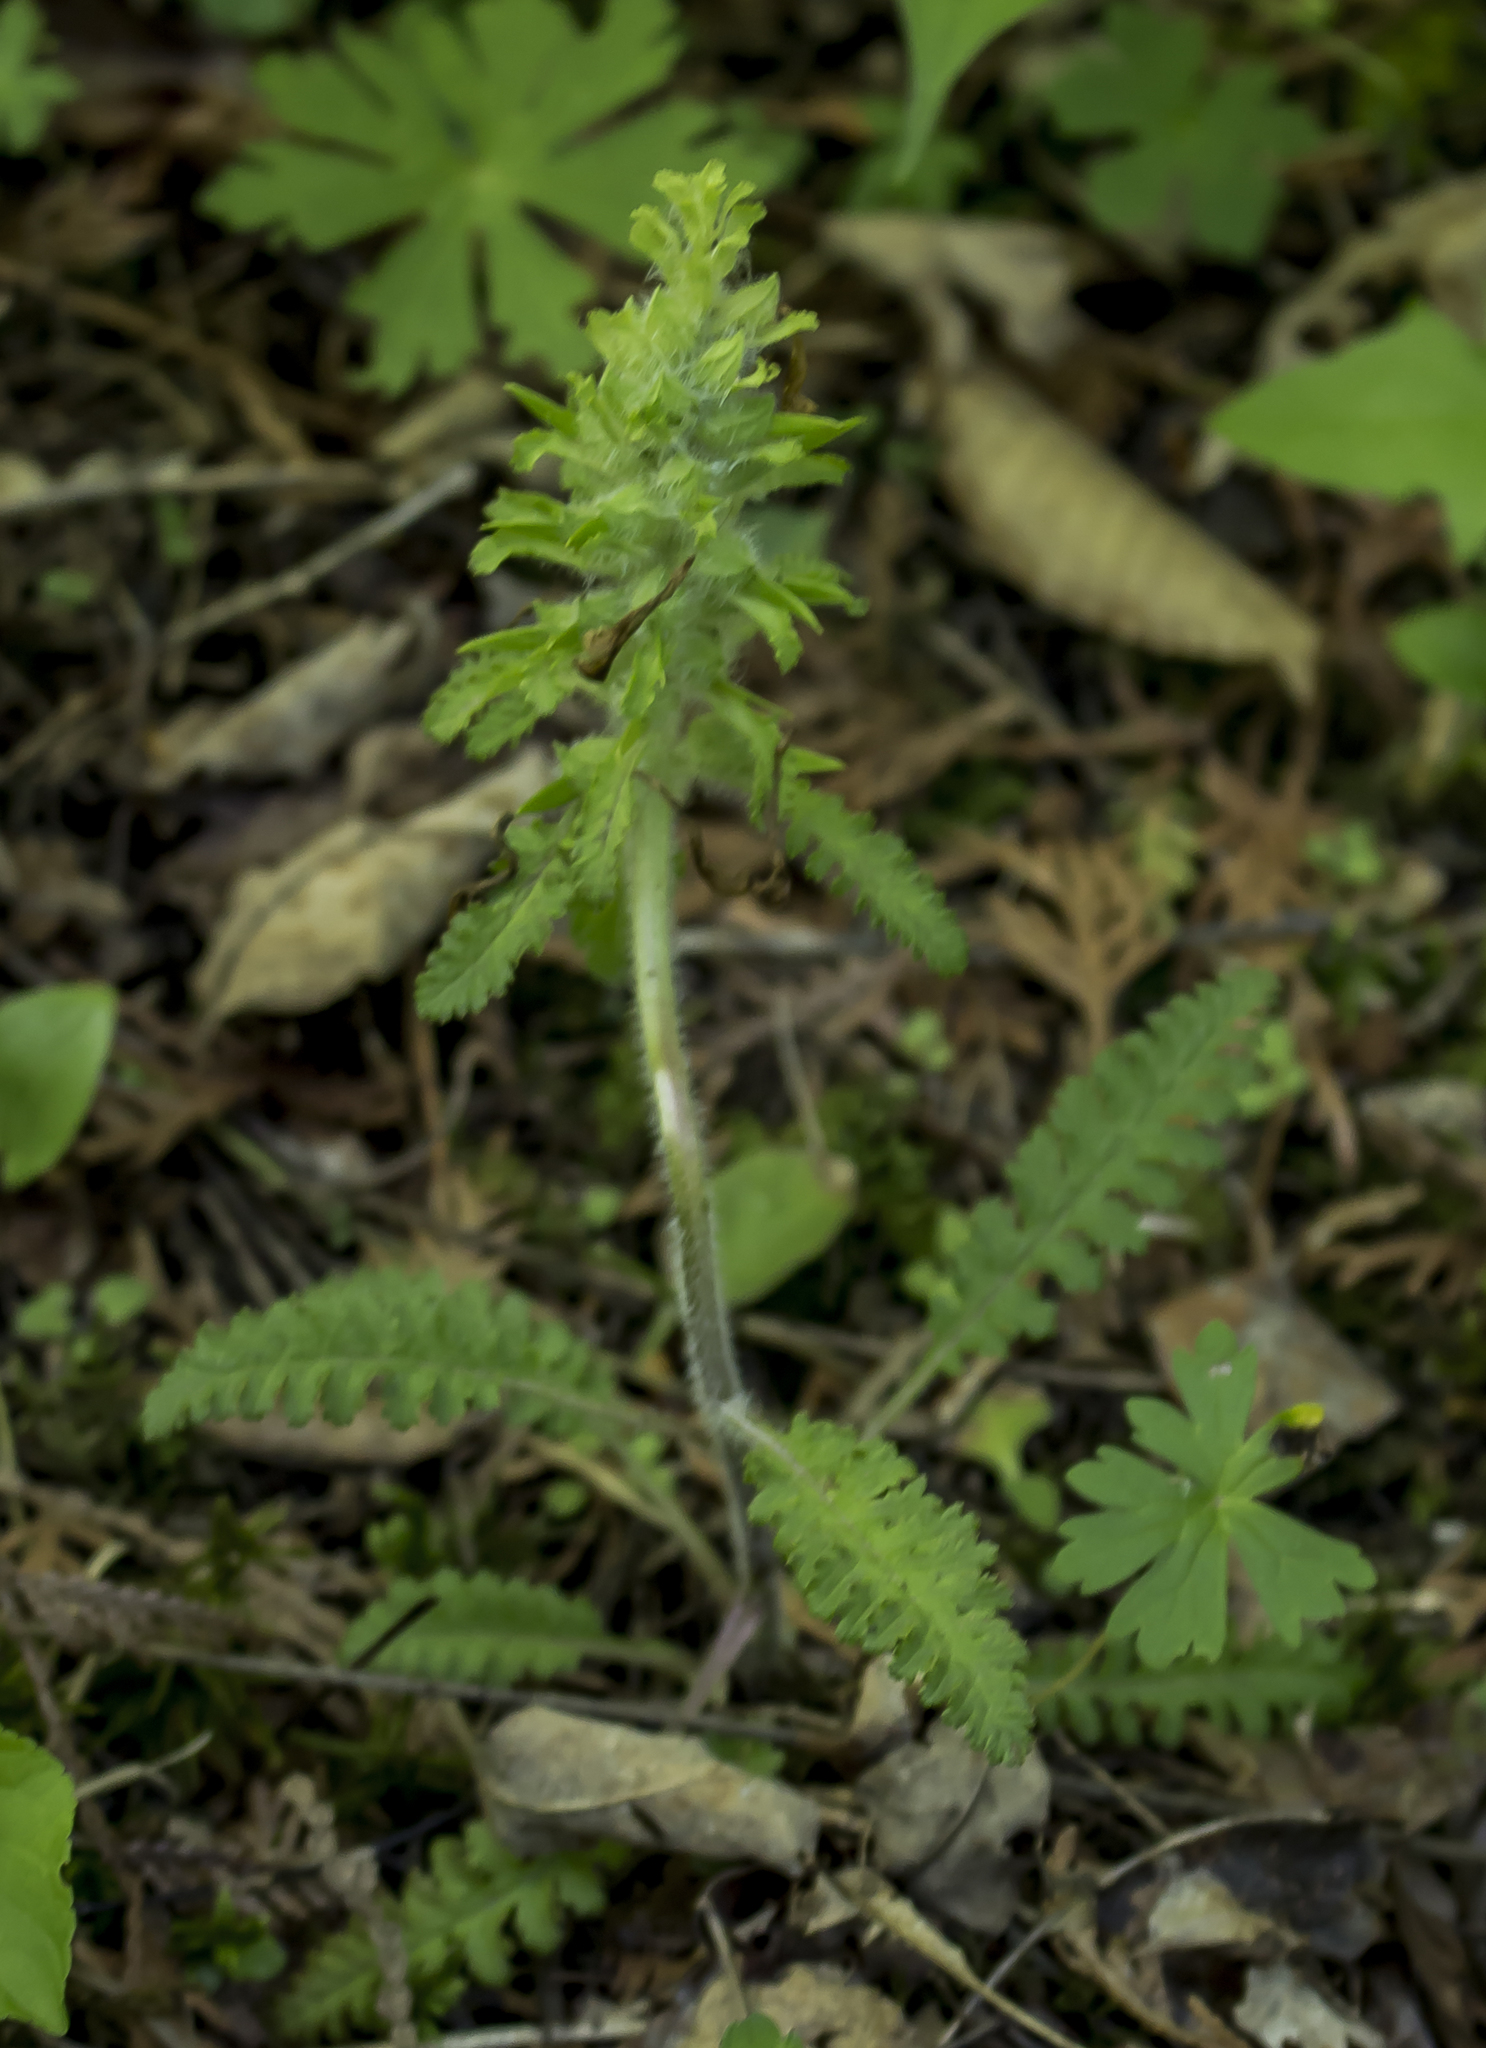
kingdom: Plantae
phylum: Tracheophyta
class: Magnoliopsida
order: Lamiales
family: Orobanchaceae
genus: Pedicularis
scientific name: Pedicularis canadensis
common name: Early lousewort
